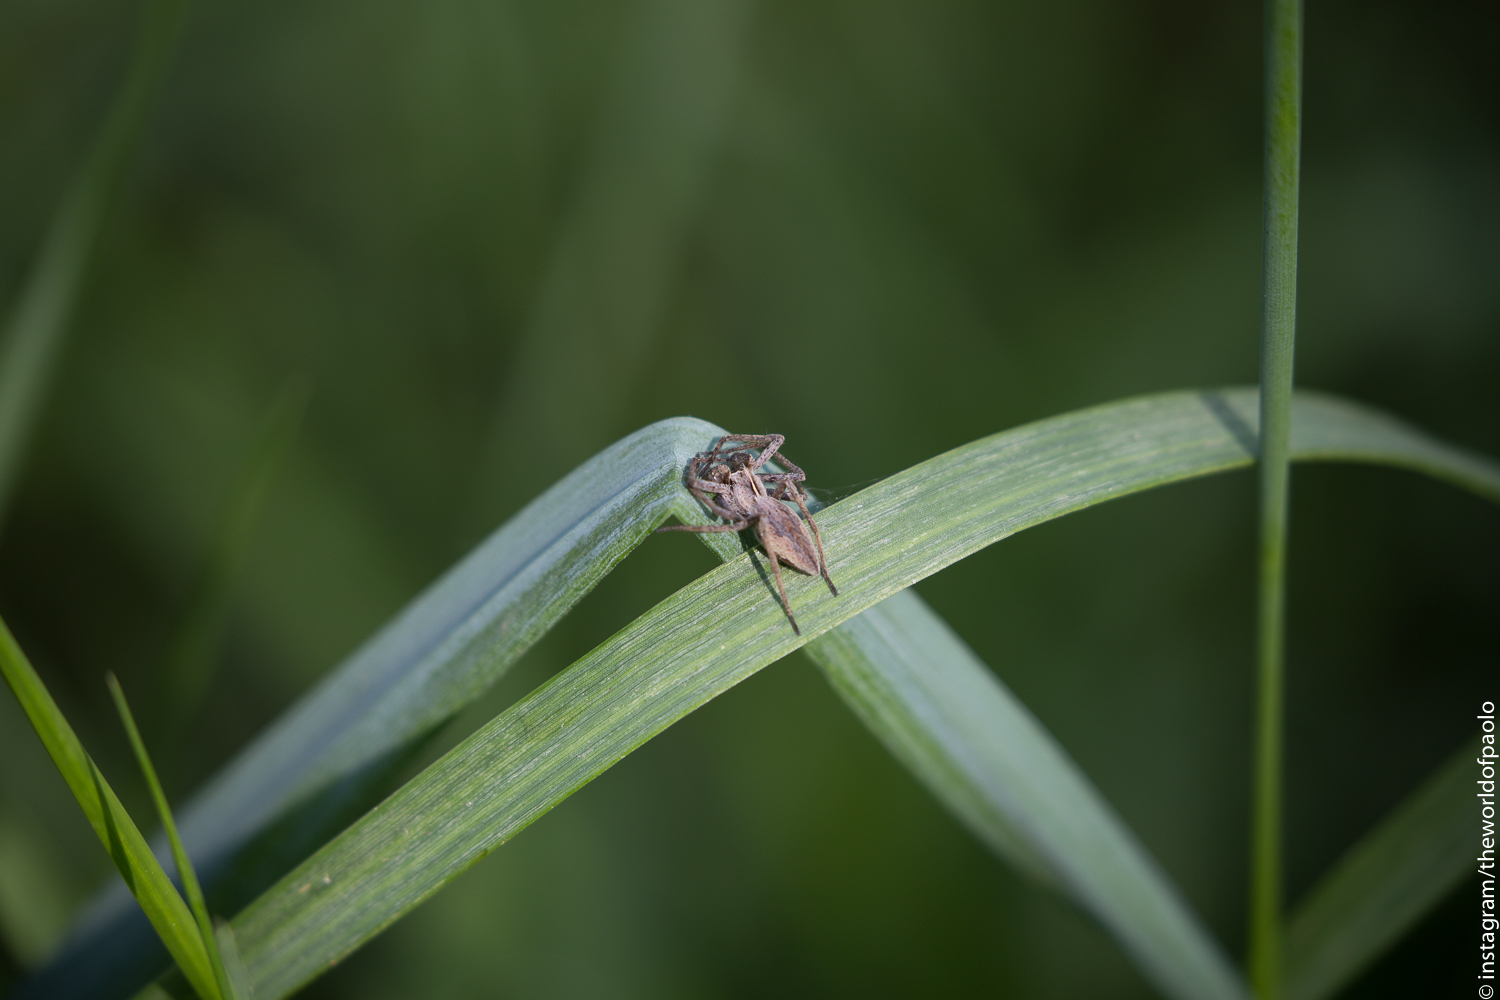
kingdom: Animalia
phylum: Arthropoda
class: Arachnida
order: Araneae
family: Pisauridae
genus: Pisaura
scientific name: Pisaura mirabilis
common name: Tent spider
